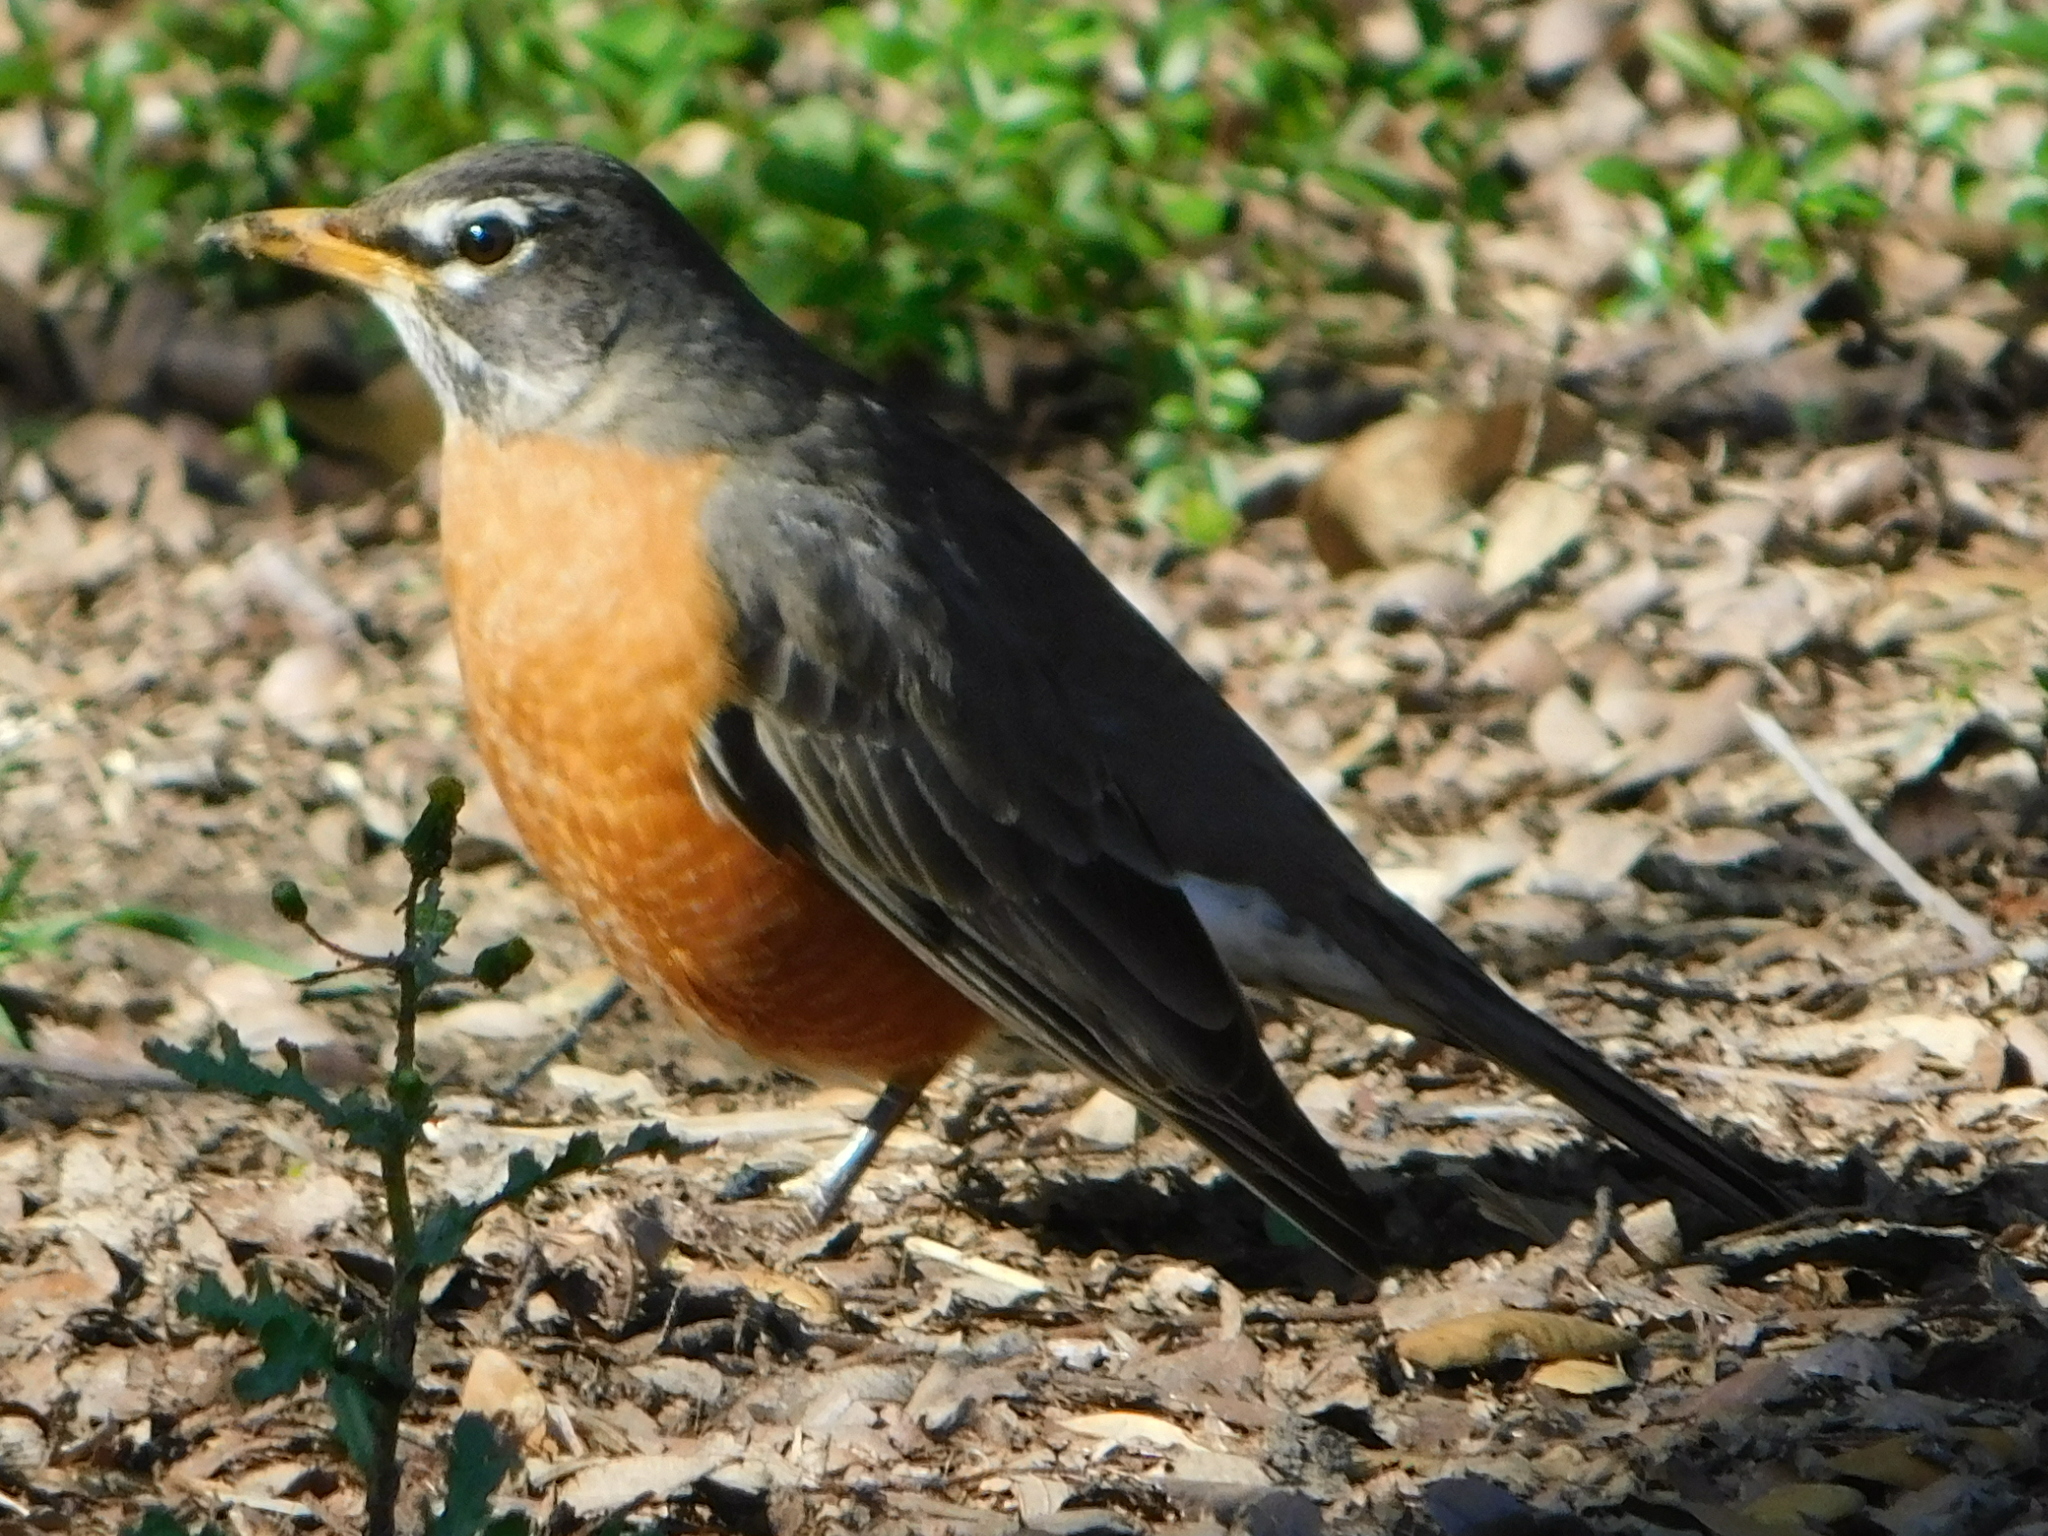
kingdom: Animalia
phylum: Chordata
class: Aves
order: Passeriformes
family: Turdidae
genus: Turdus
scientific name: Turdus migratorius
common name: American robin
